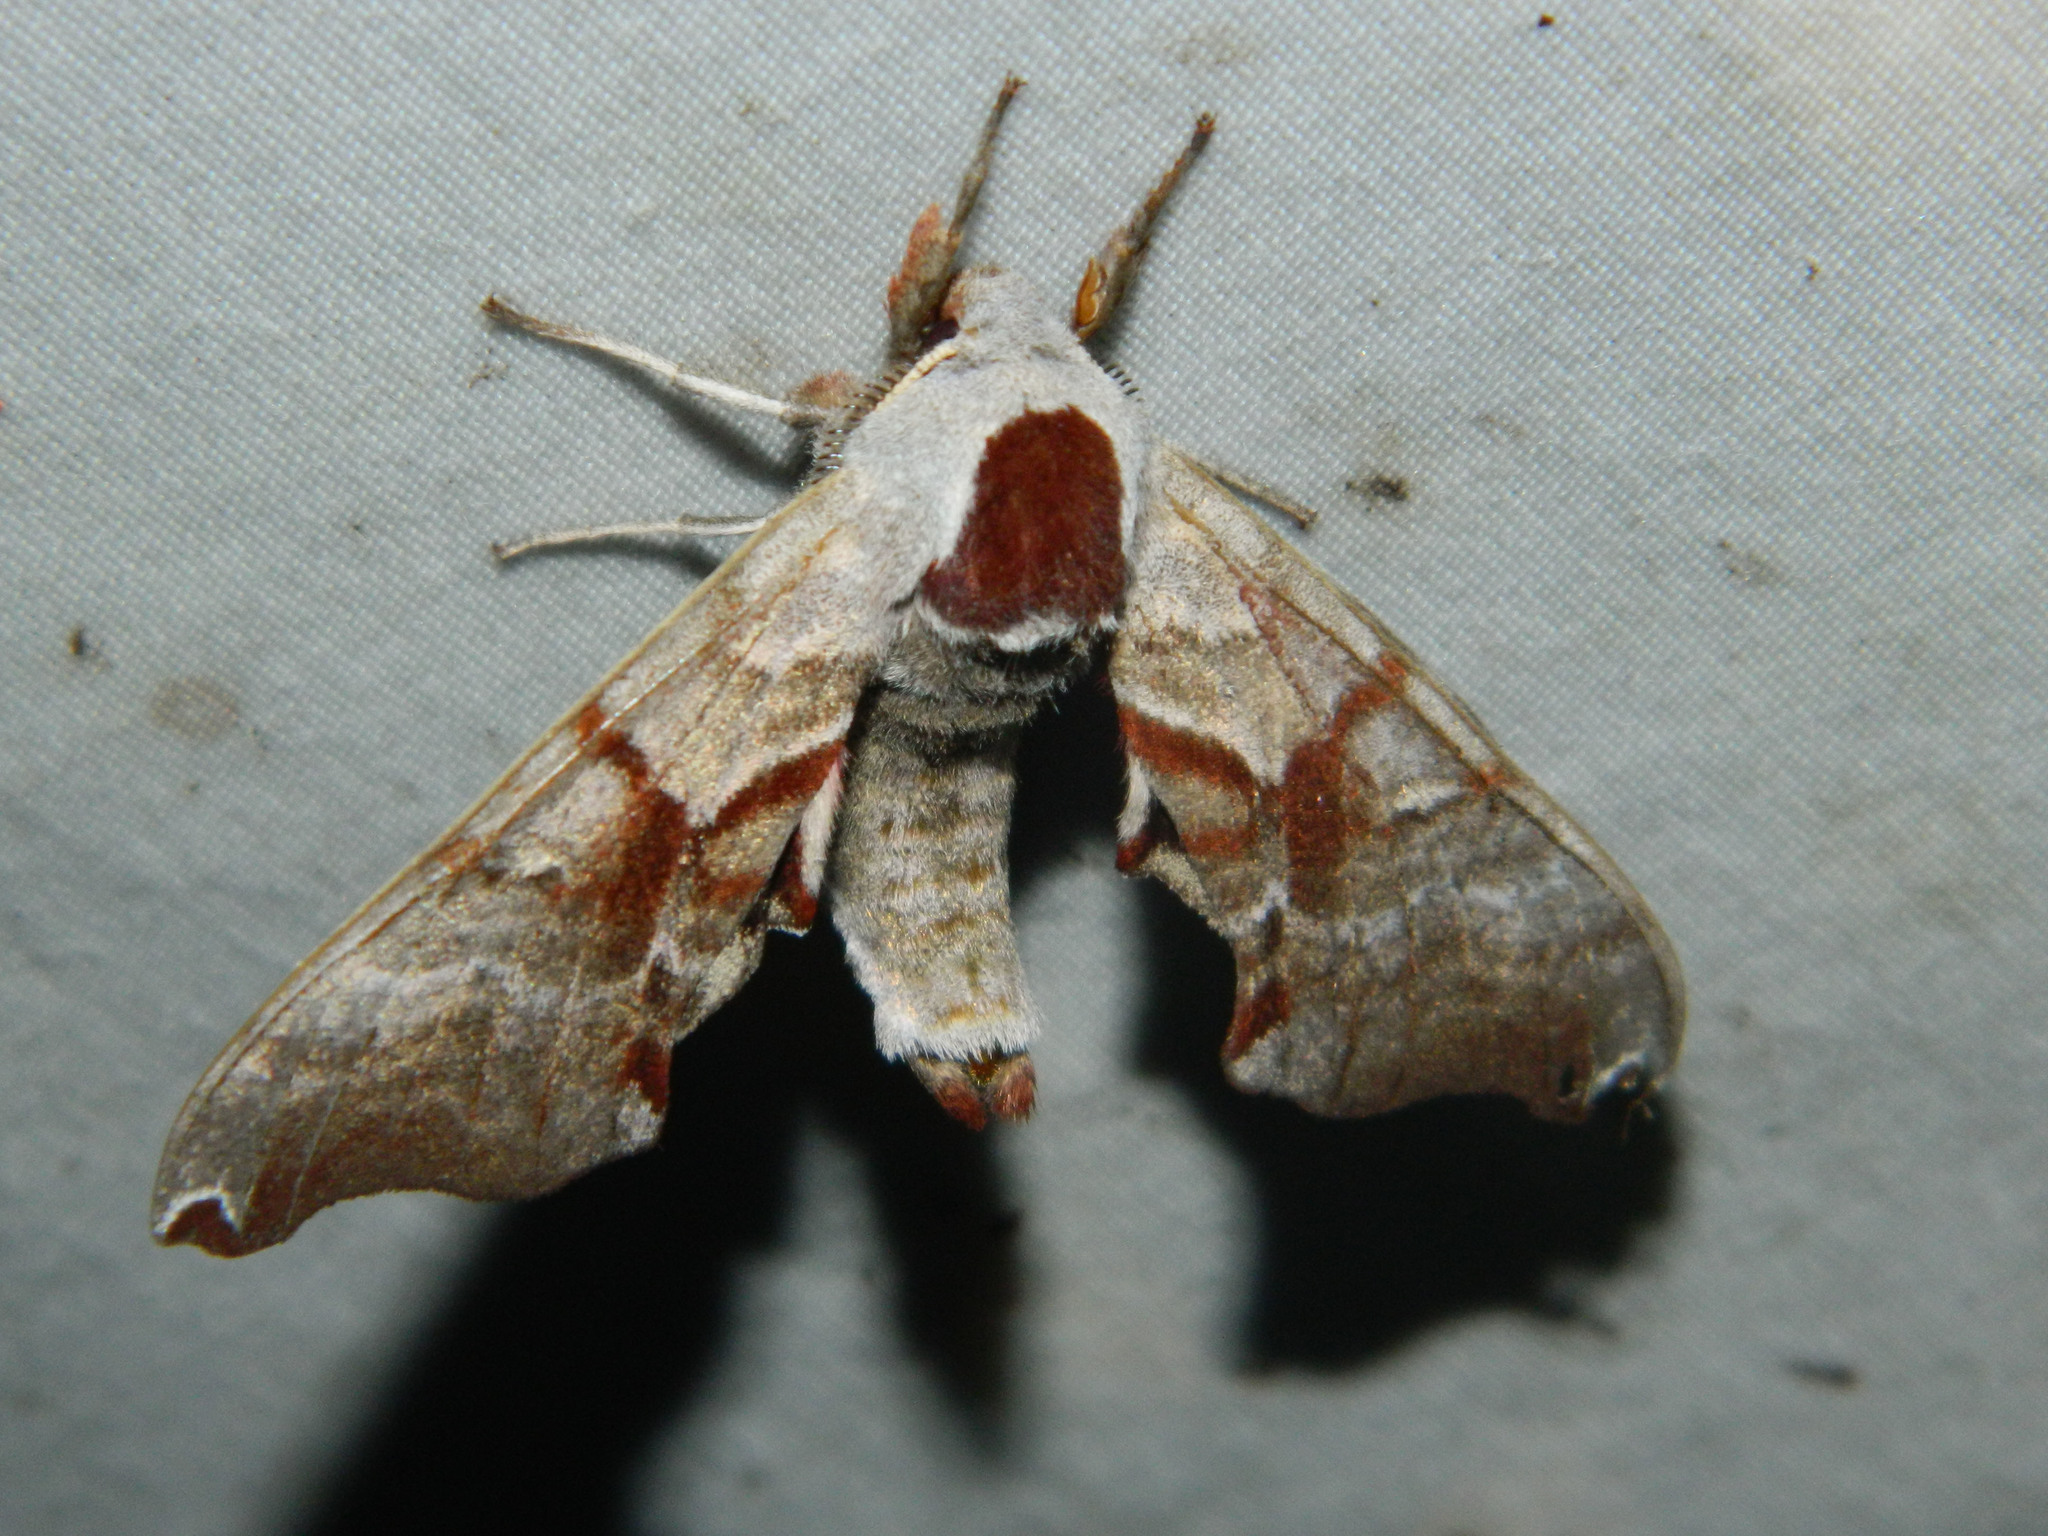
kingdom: Animalia
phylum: Arthropoda
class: Insecta
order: Lepidoptera
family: Sphingidae
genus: Smerinthus
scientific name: Smerinthus jamaicensis
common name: Twin spotted sphinx
